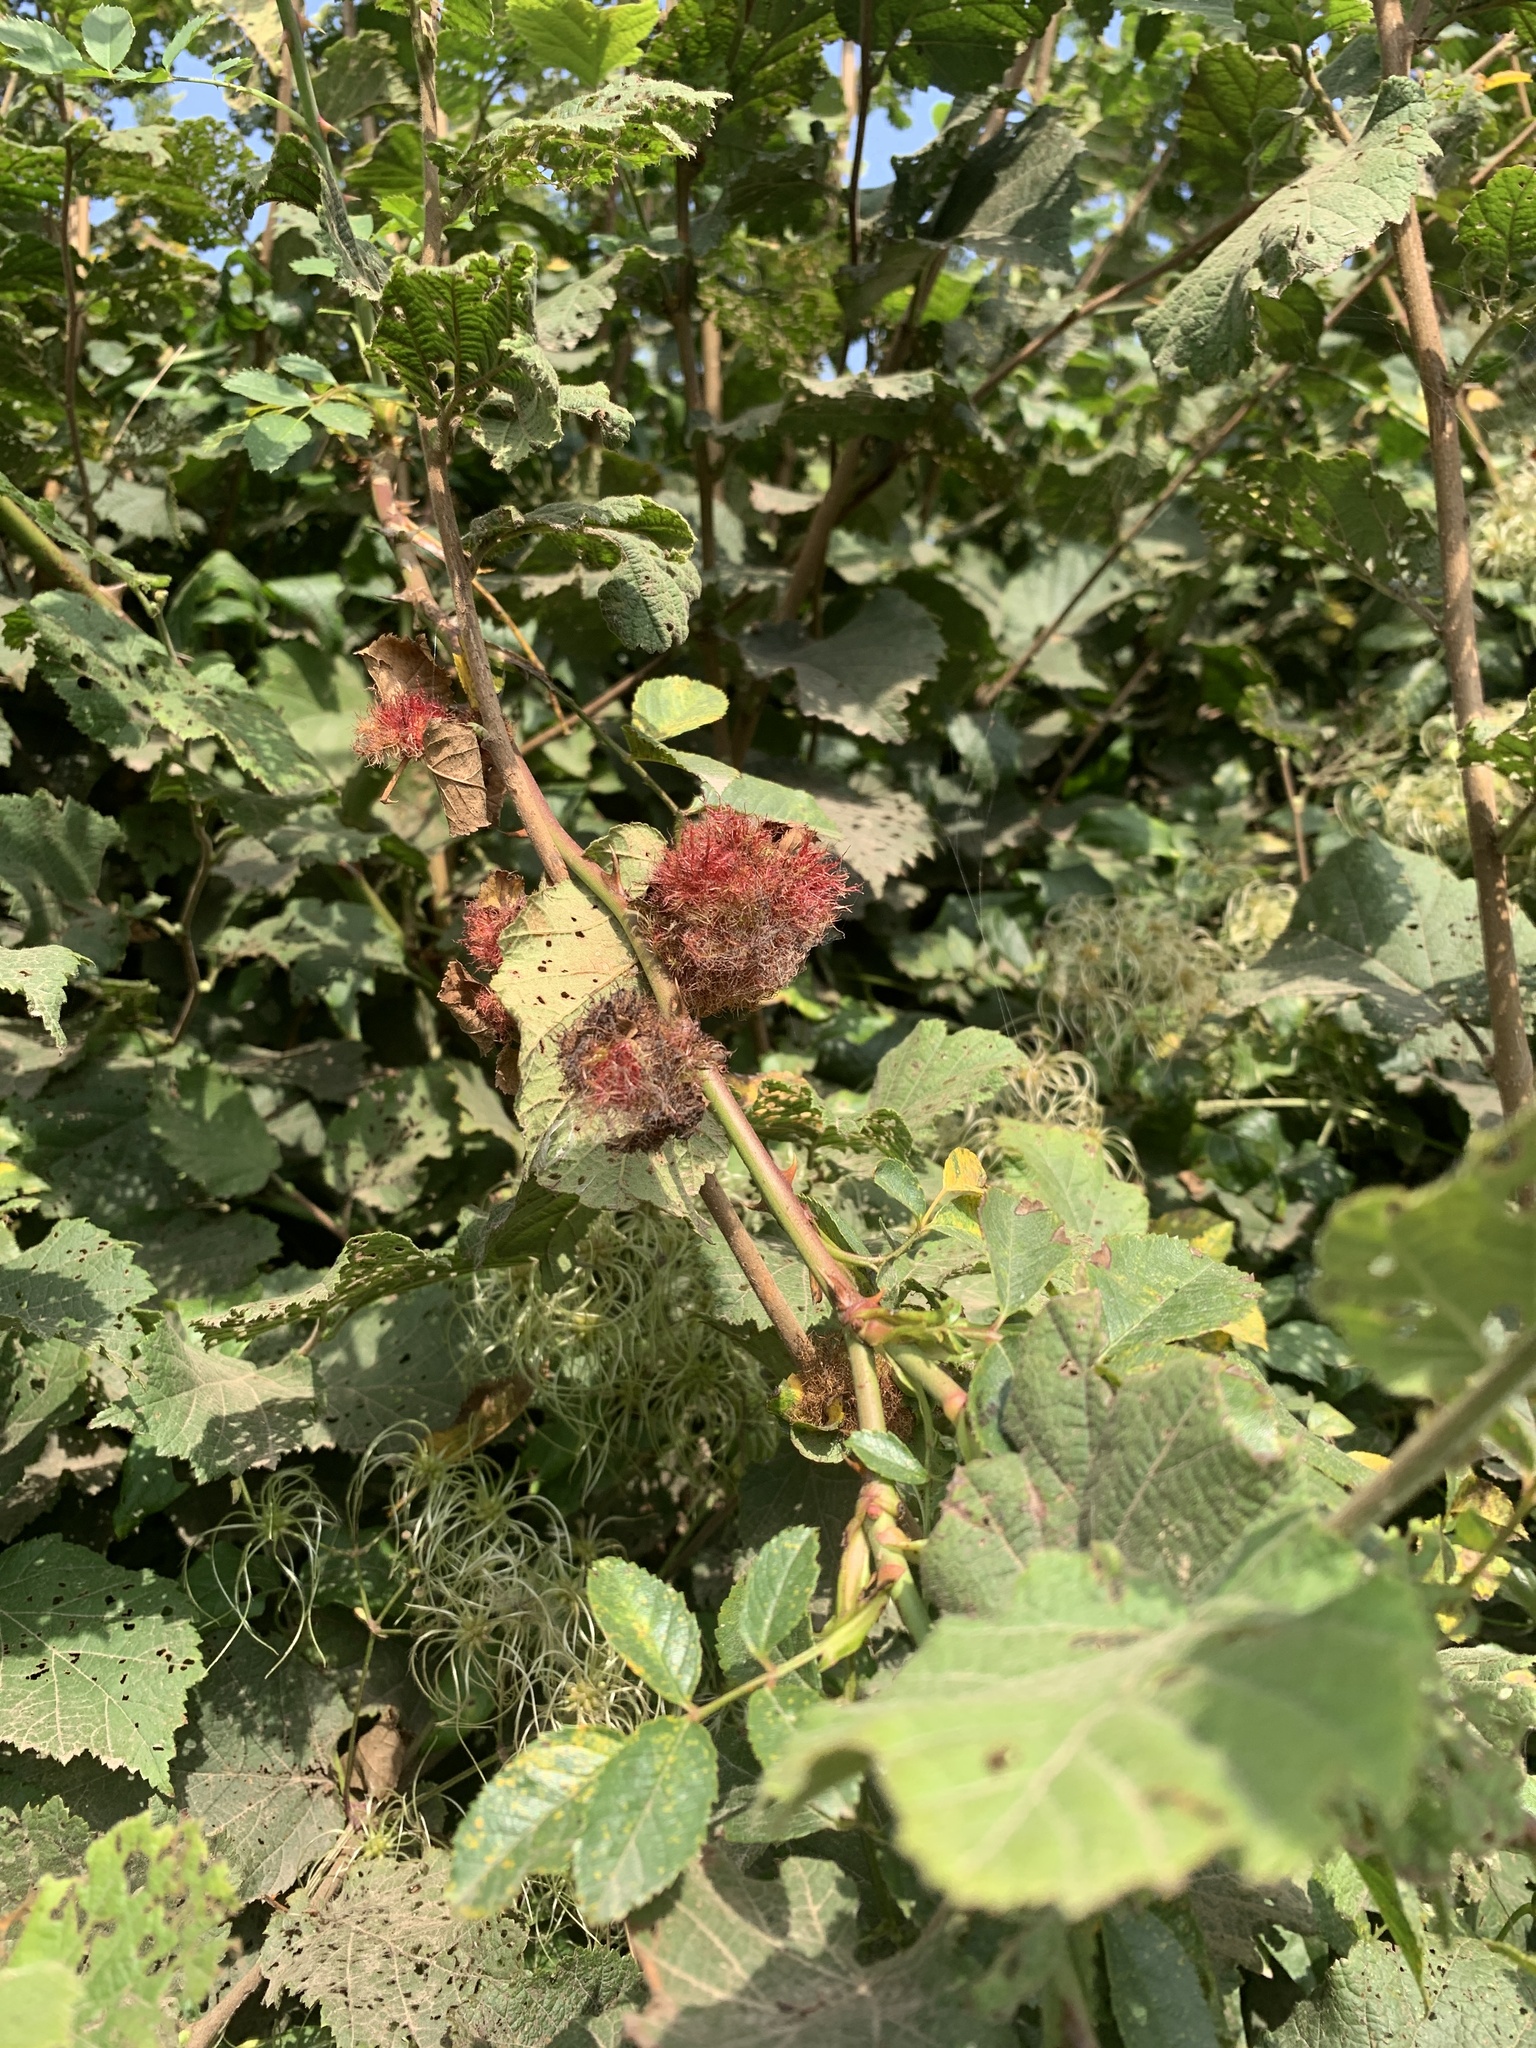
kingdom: Animalia
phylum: Arthropoda
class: Insecta
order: Hymenoptera
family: Cynipidae
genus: Diplolepis
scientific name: Diplolepis rosae
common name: Bedeguar gall
